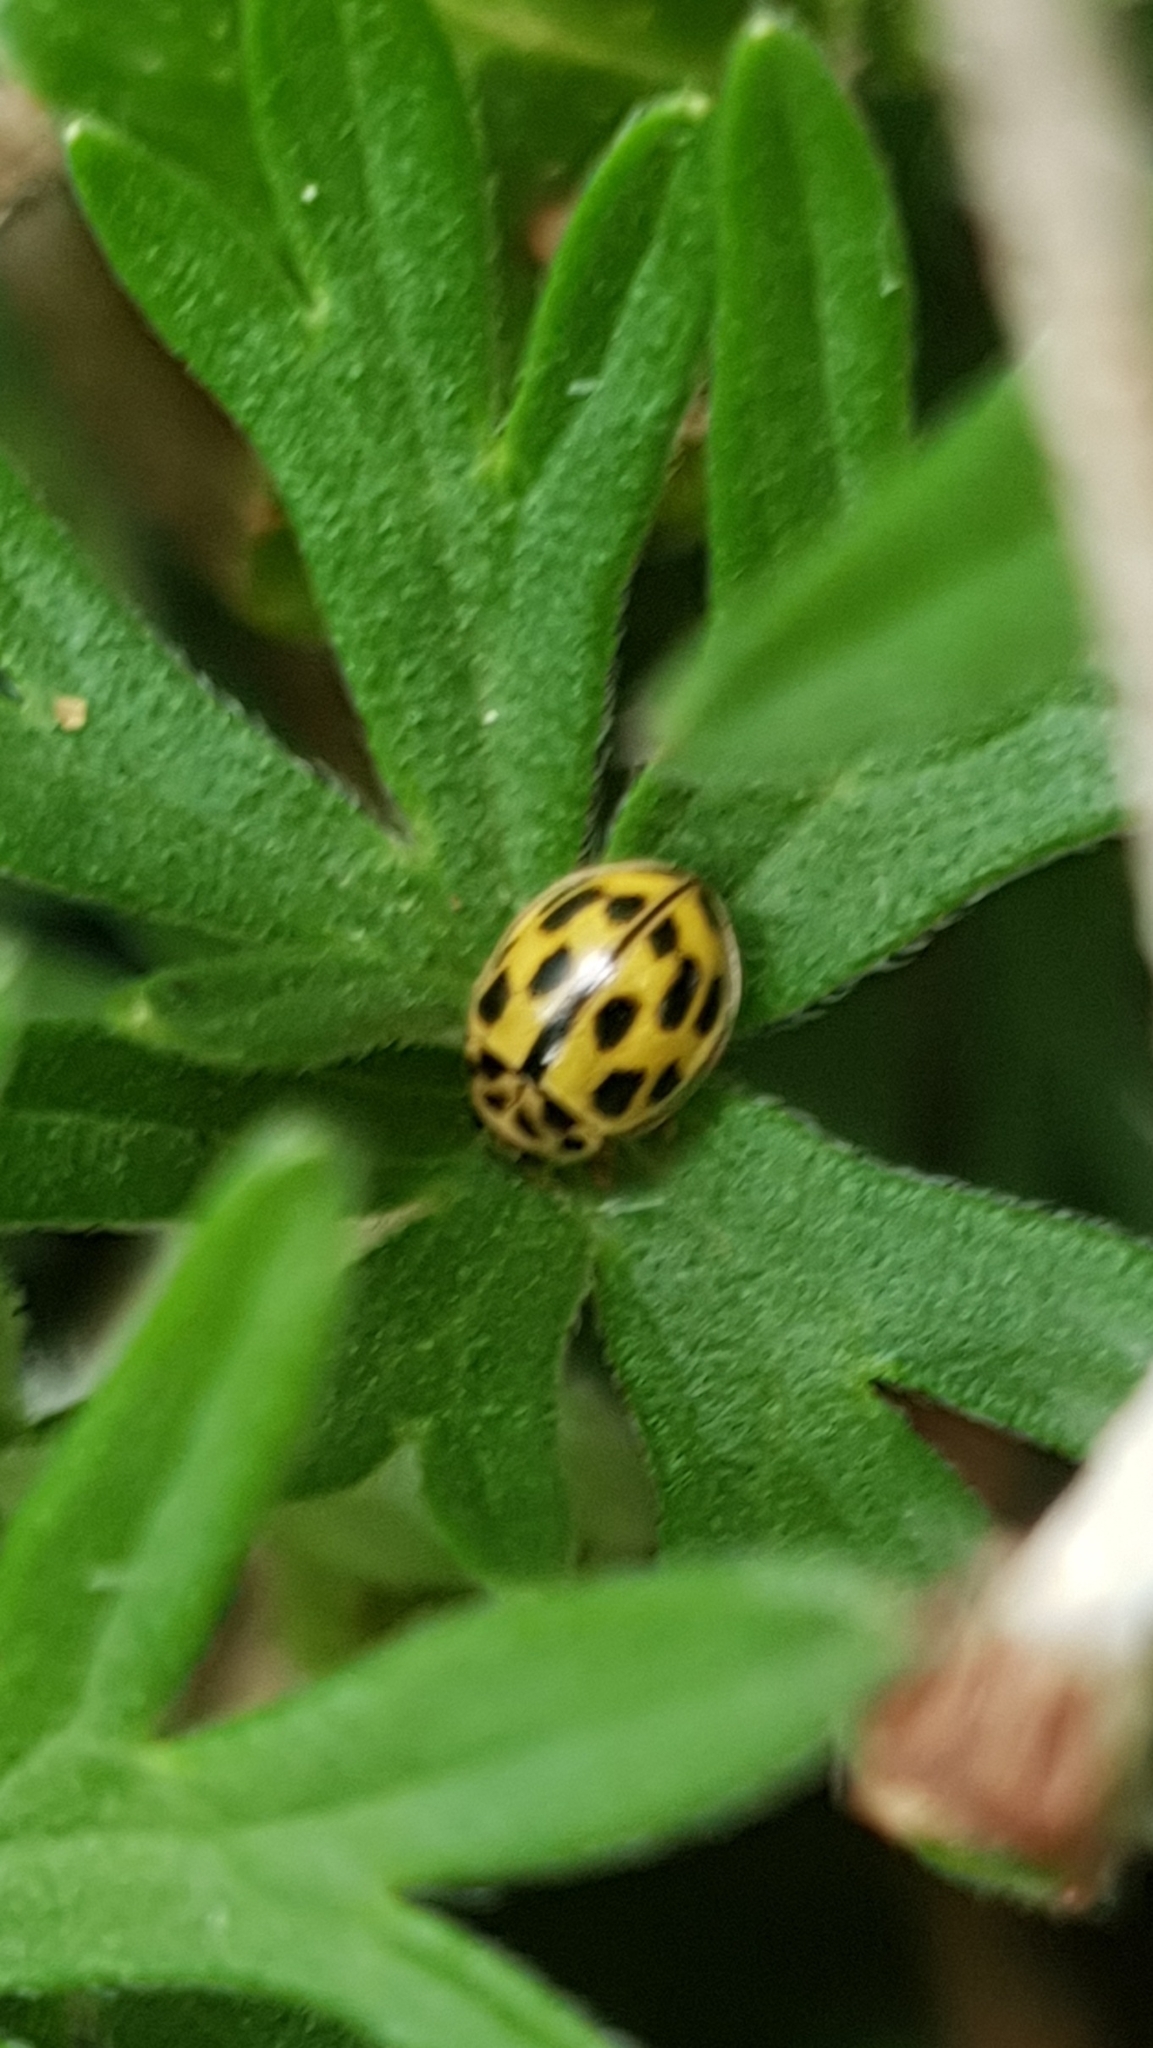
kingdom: Animalia
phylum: Arthropoda
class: Insecta
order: Coleoptera
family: Coccinellidae
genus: Propylaea
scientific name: Propylaea quatuordecimpunctata
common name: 14-spotted ladybird beetle
